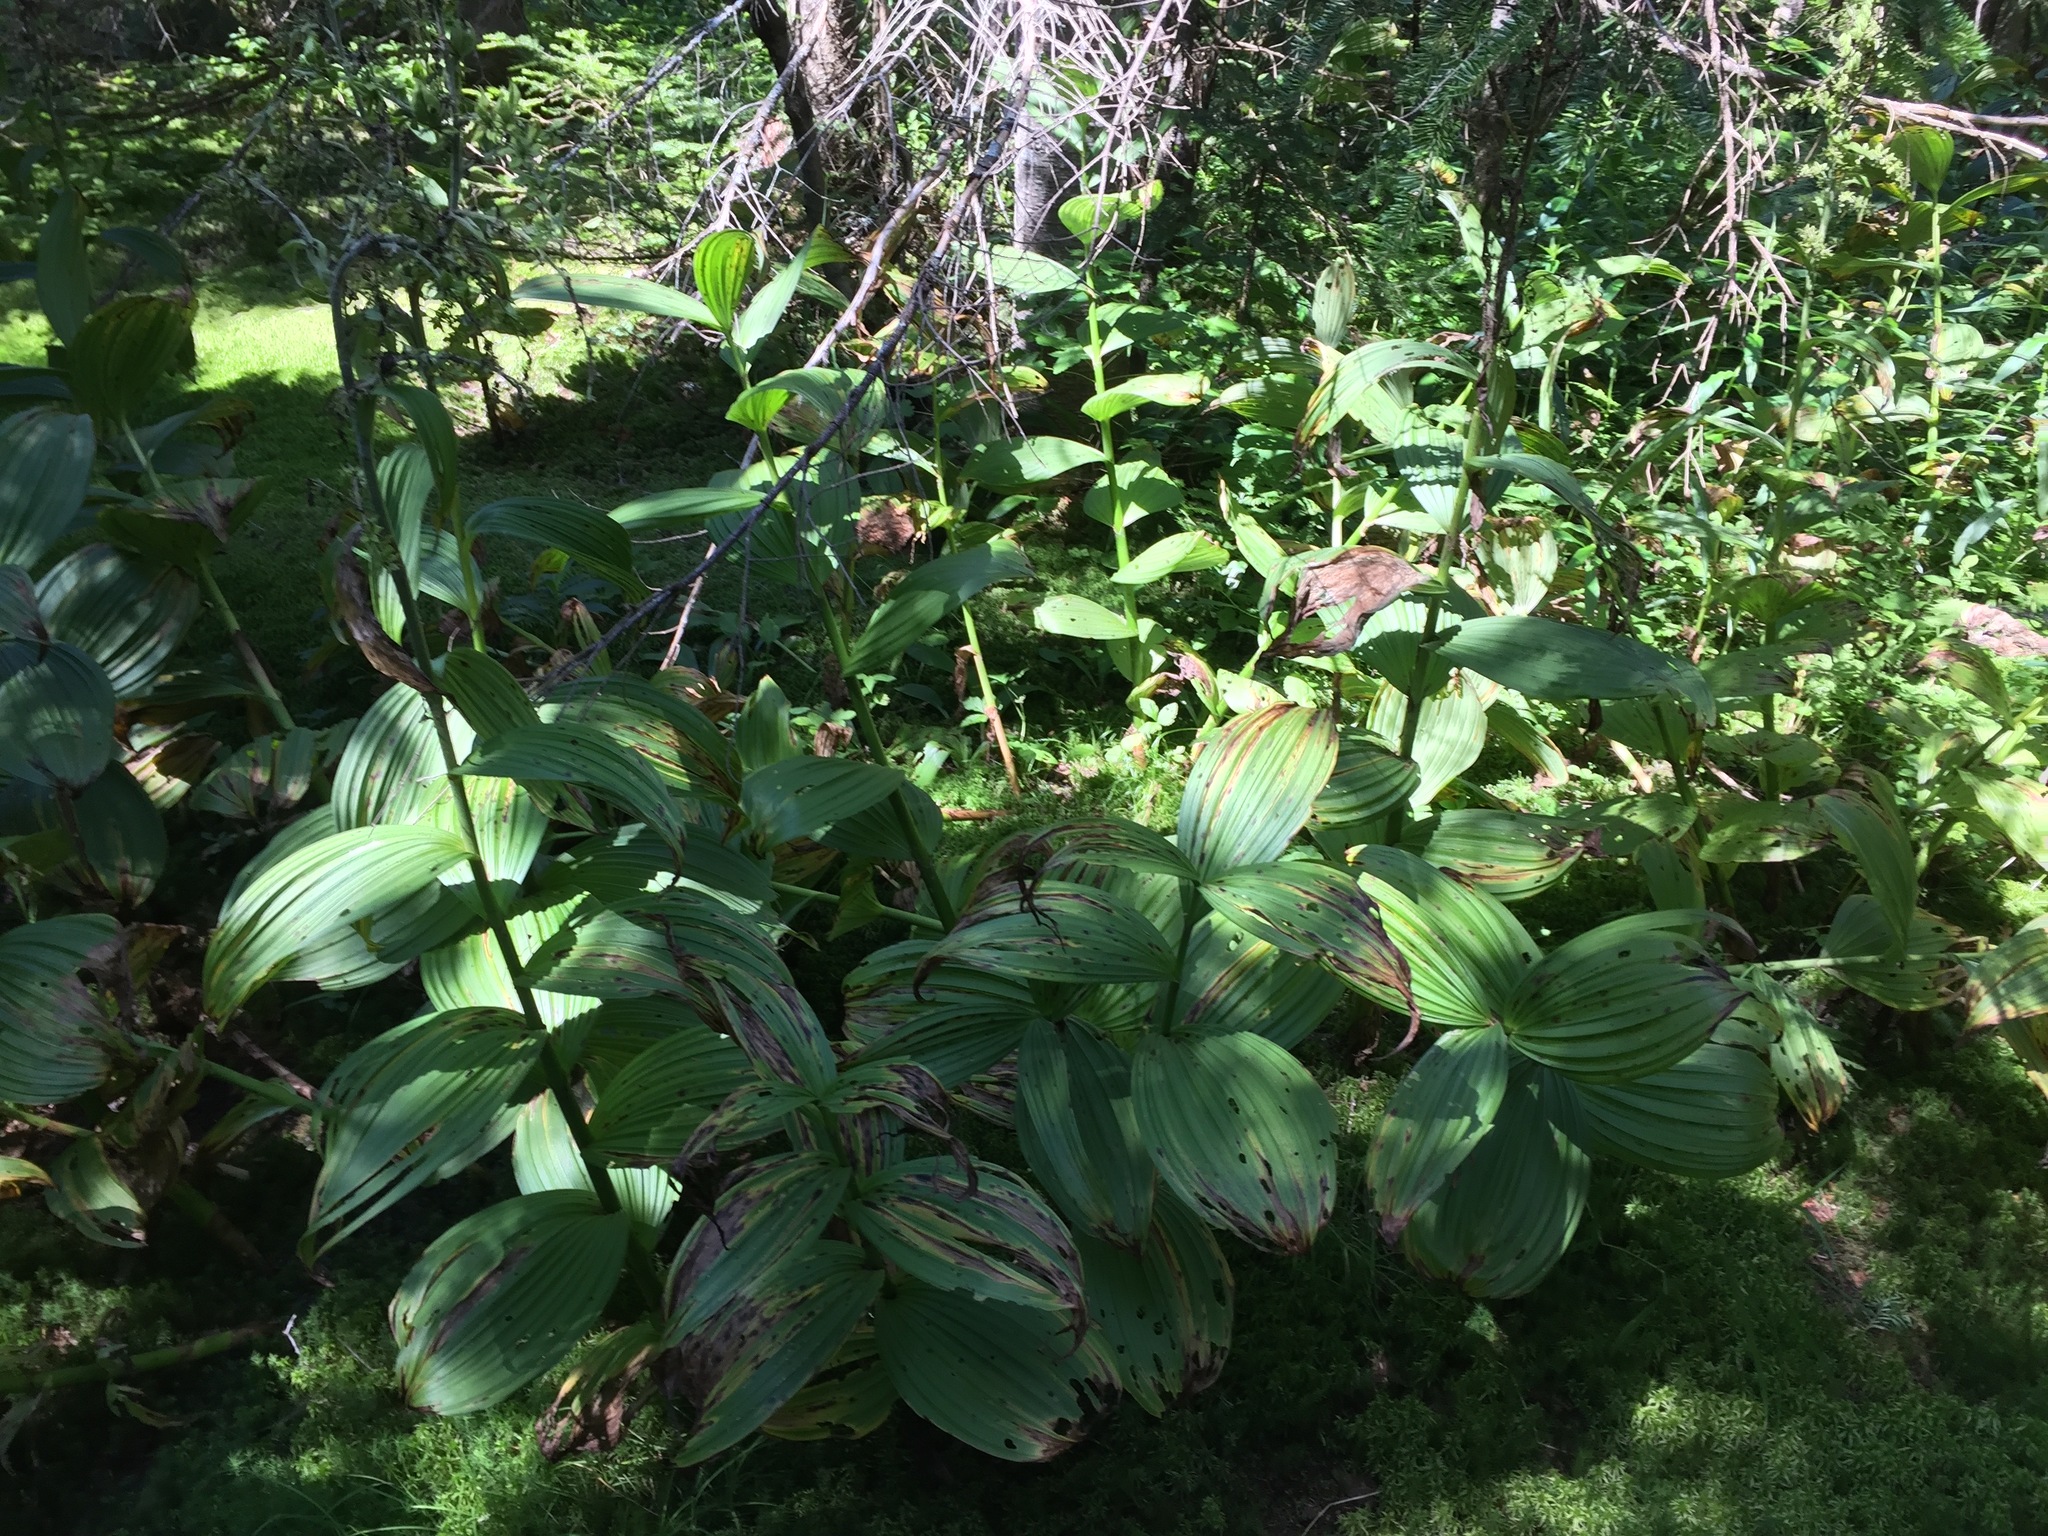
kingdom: Plantae
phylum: Tracheophyta
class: Liliopsida
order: Liliales
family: Melanthiaceae
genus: Veratrum
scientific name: Veratrum viride
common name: American false hellebore
